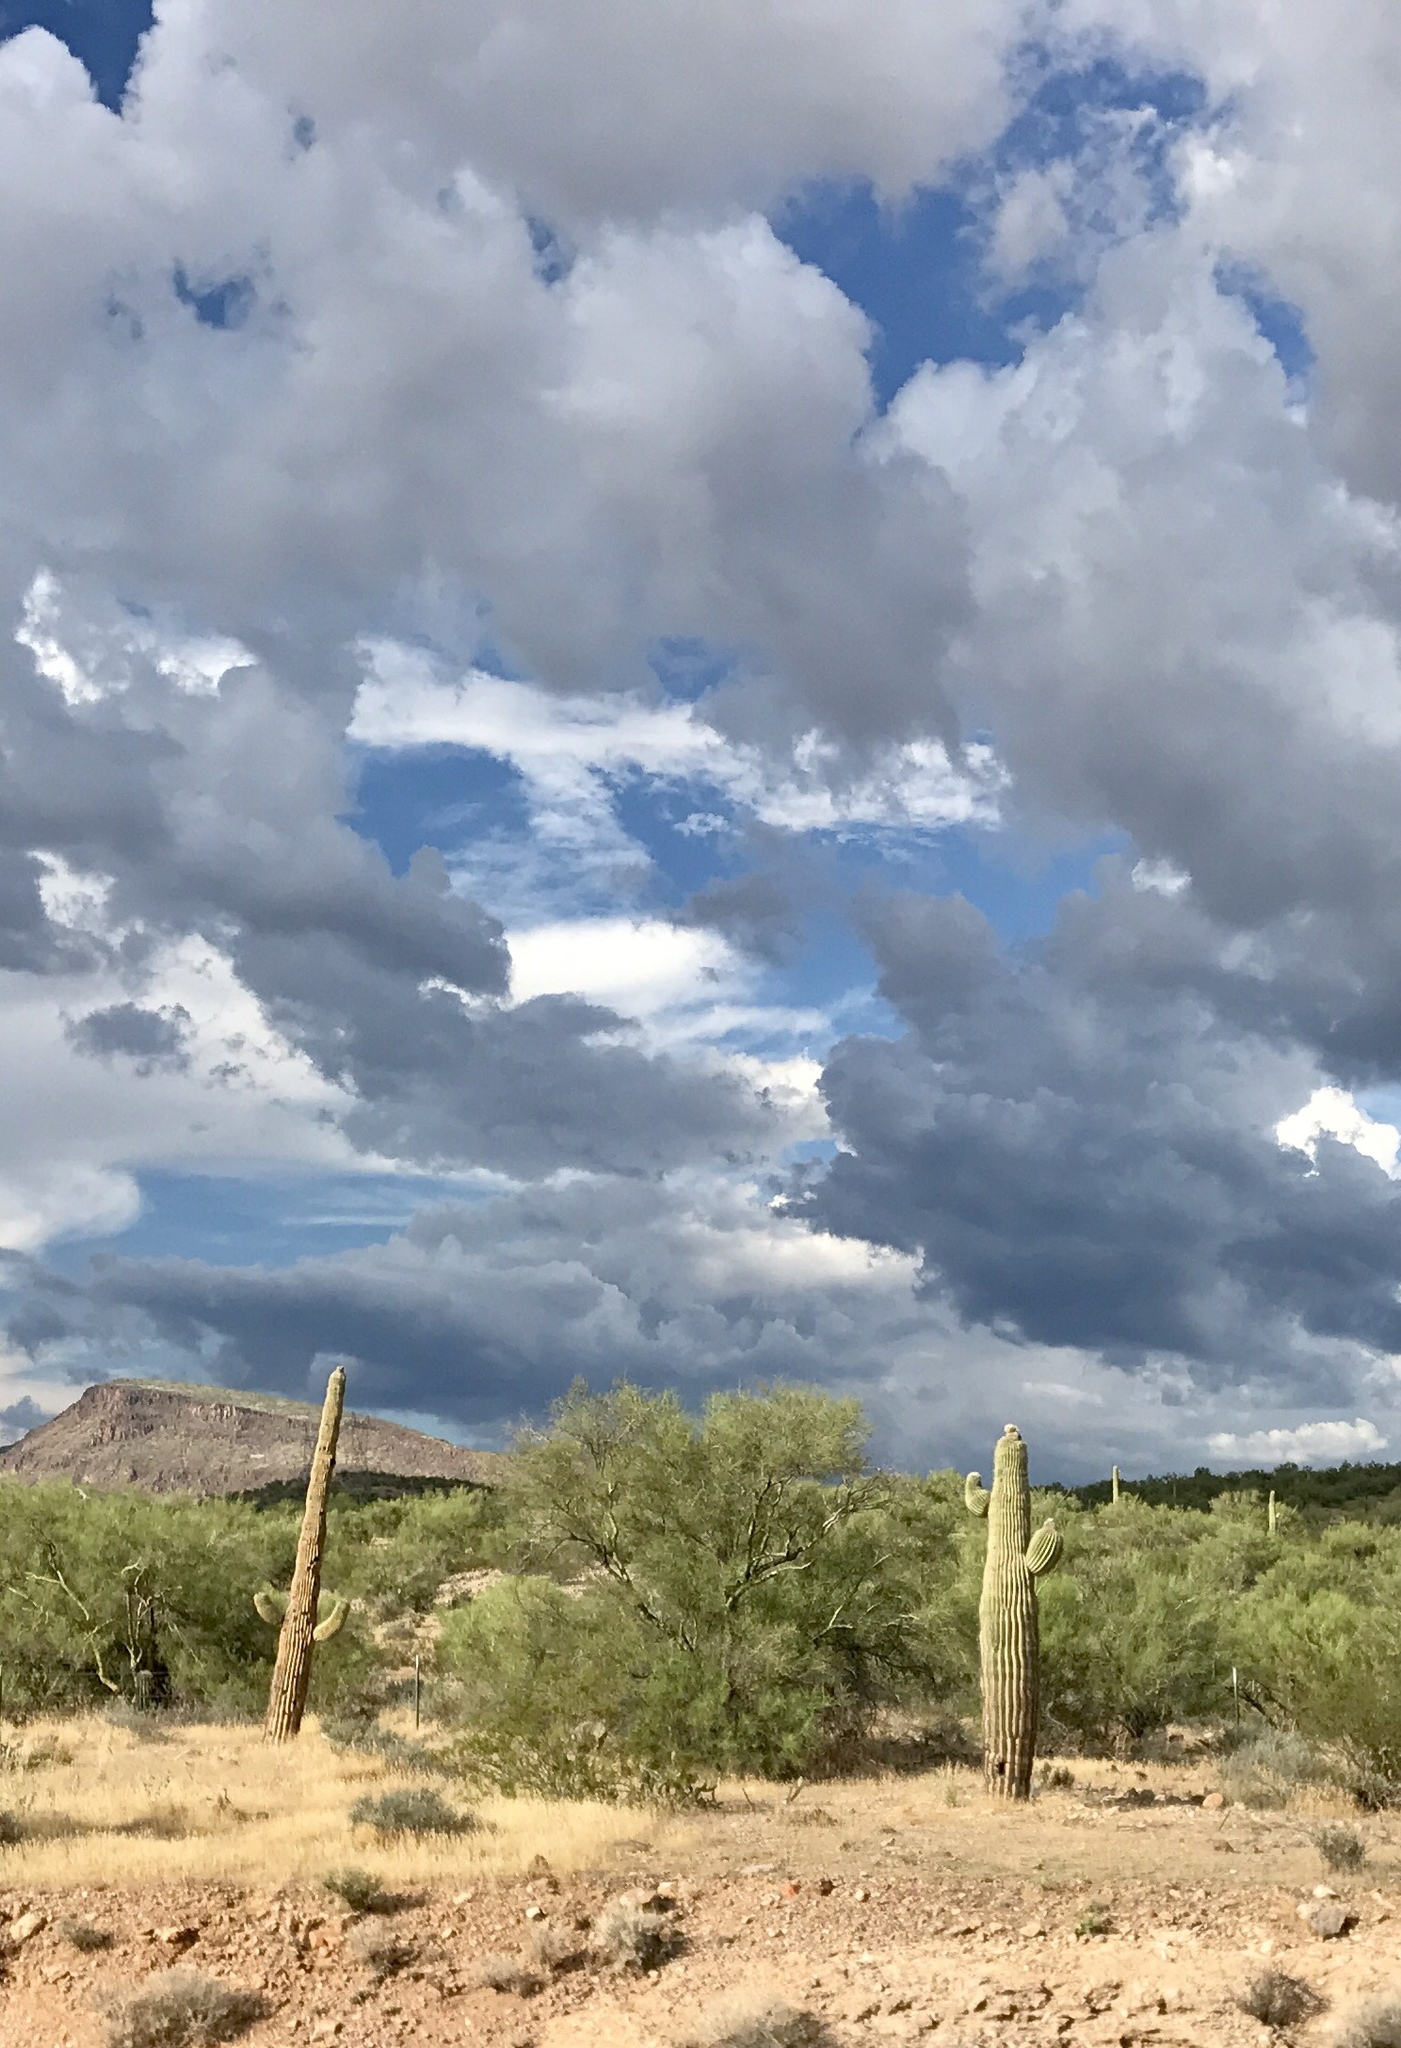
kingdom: Plantae
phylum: Tracheophyta
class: Magnoliopsida
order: Caryophyllales
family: Cactaceae
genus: Carnegiea
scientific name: Carnegiea gigantea
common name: Saguaro
